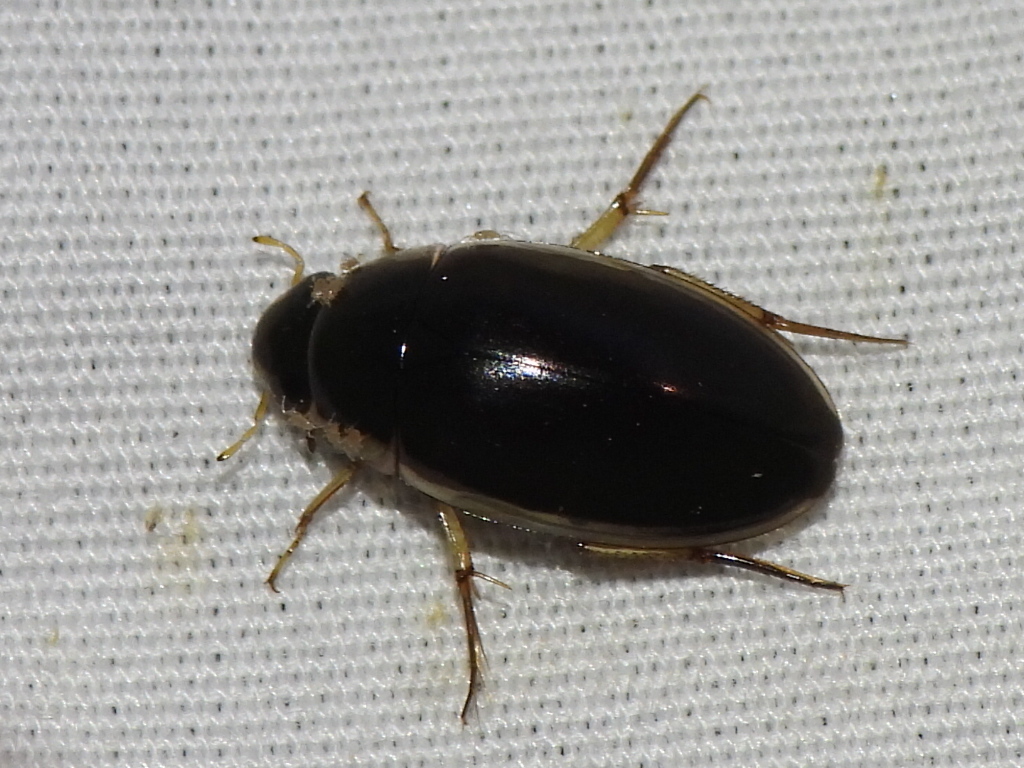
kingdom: Animalia
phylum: Arthropoda
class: Insecta
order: Coleoptera
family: Hydrophilidae
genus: Tropisternus
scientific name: Tropisternus lateralis
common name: Lateral-banded water scavenger beetle
